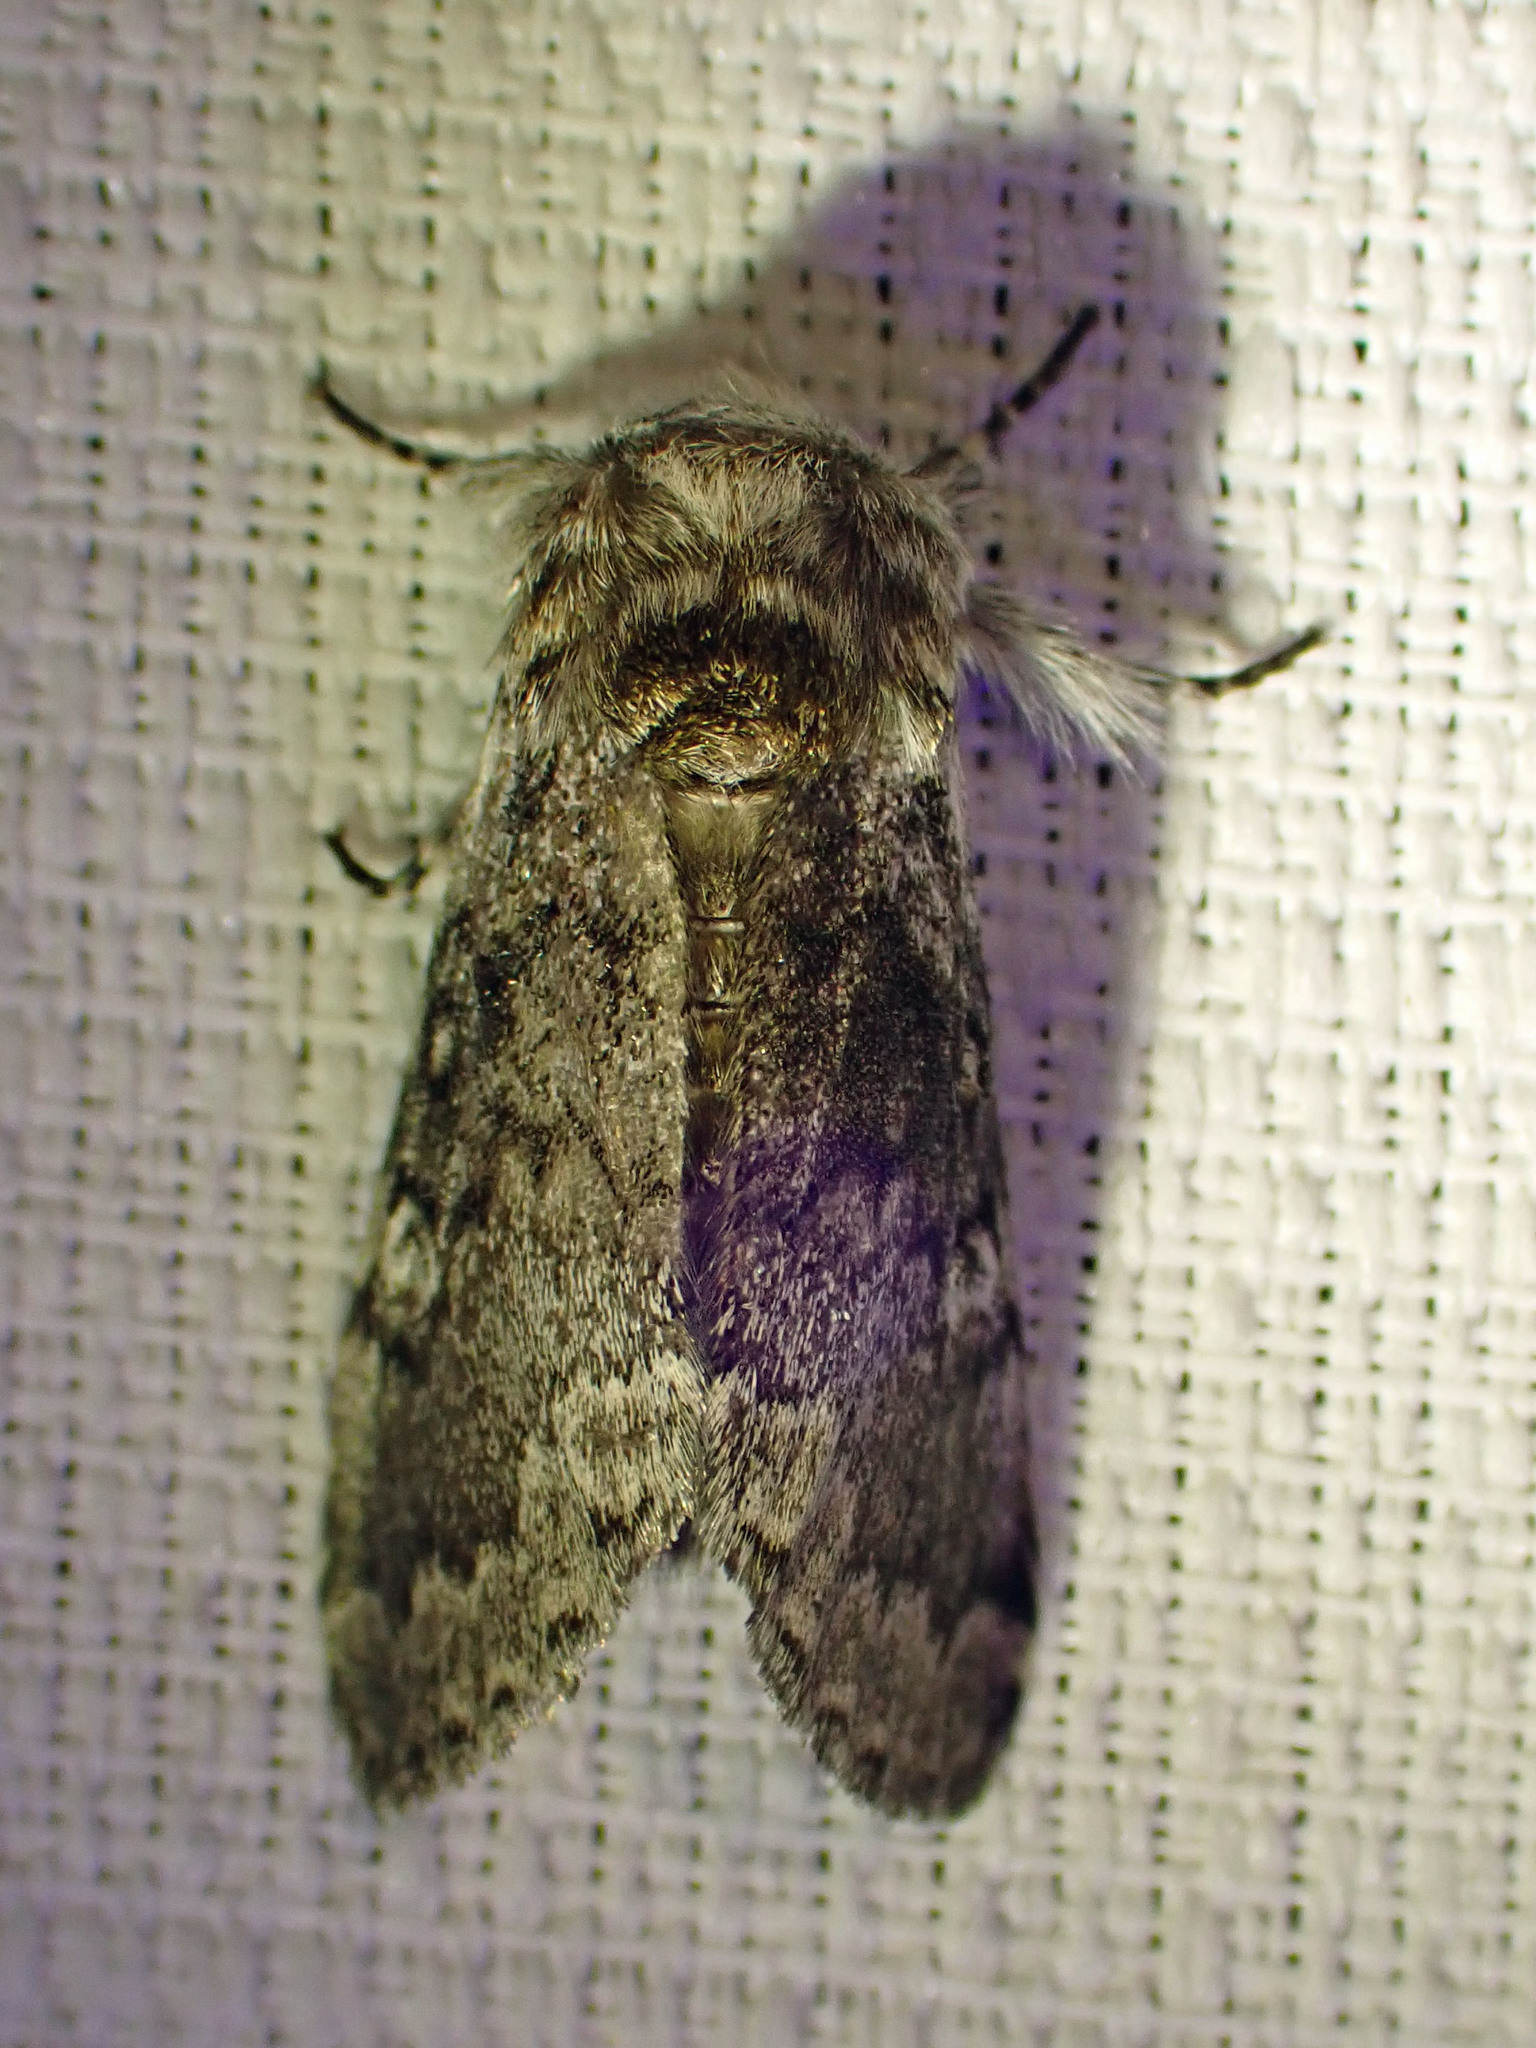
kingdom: Animalia
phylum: Arthropoda
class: Insecta
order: Lepidoptera
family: Noctuidae
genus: Colocasia
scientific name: Colocasia propinquilinea
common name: Close-banded demas
